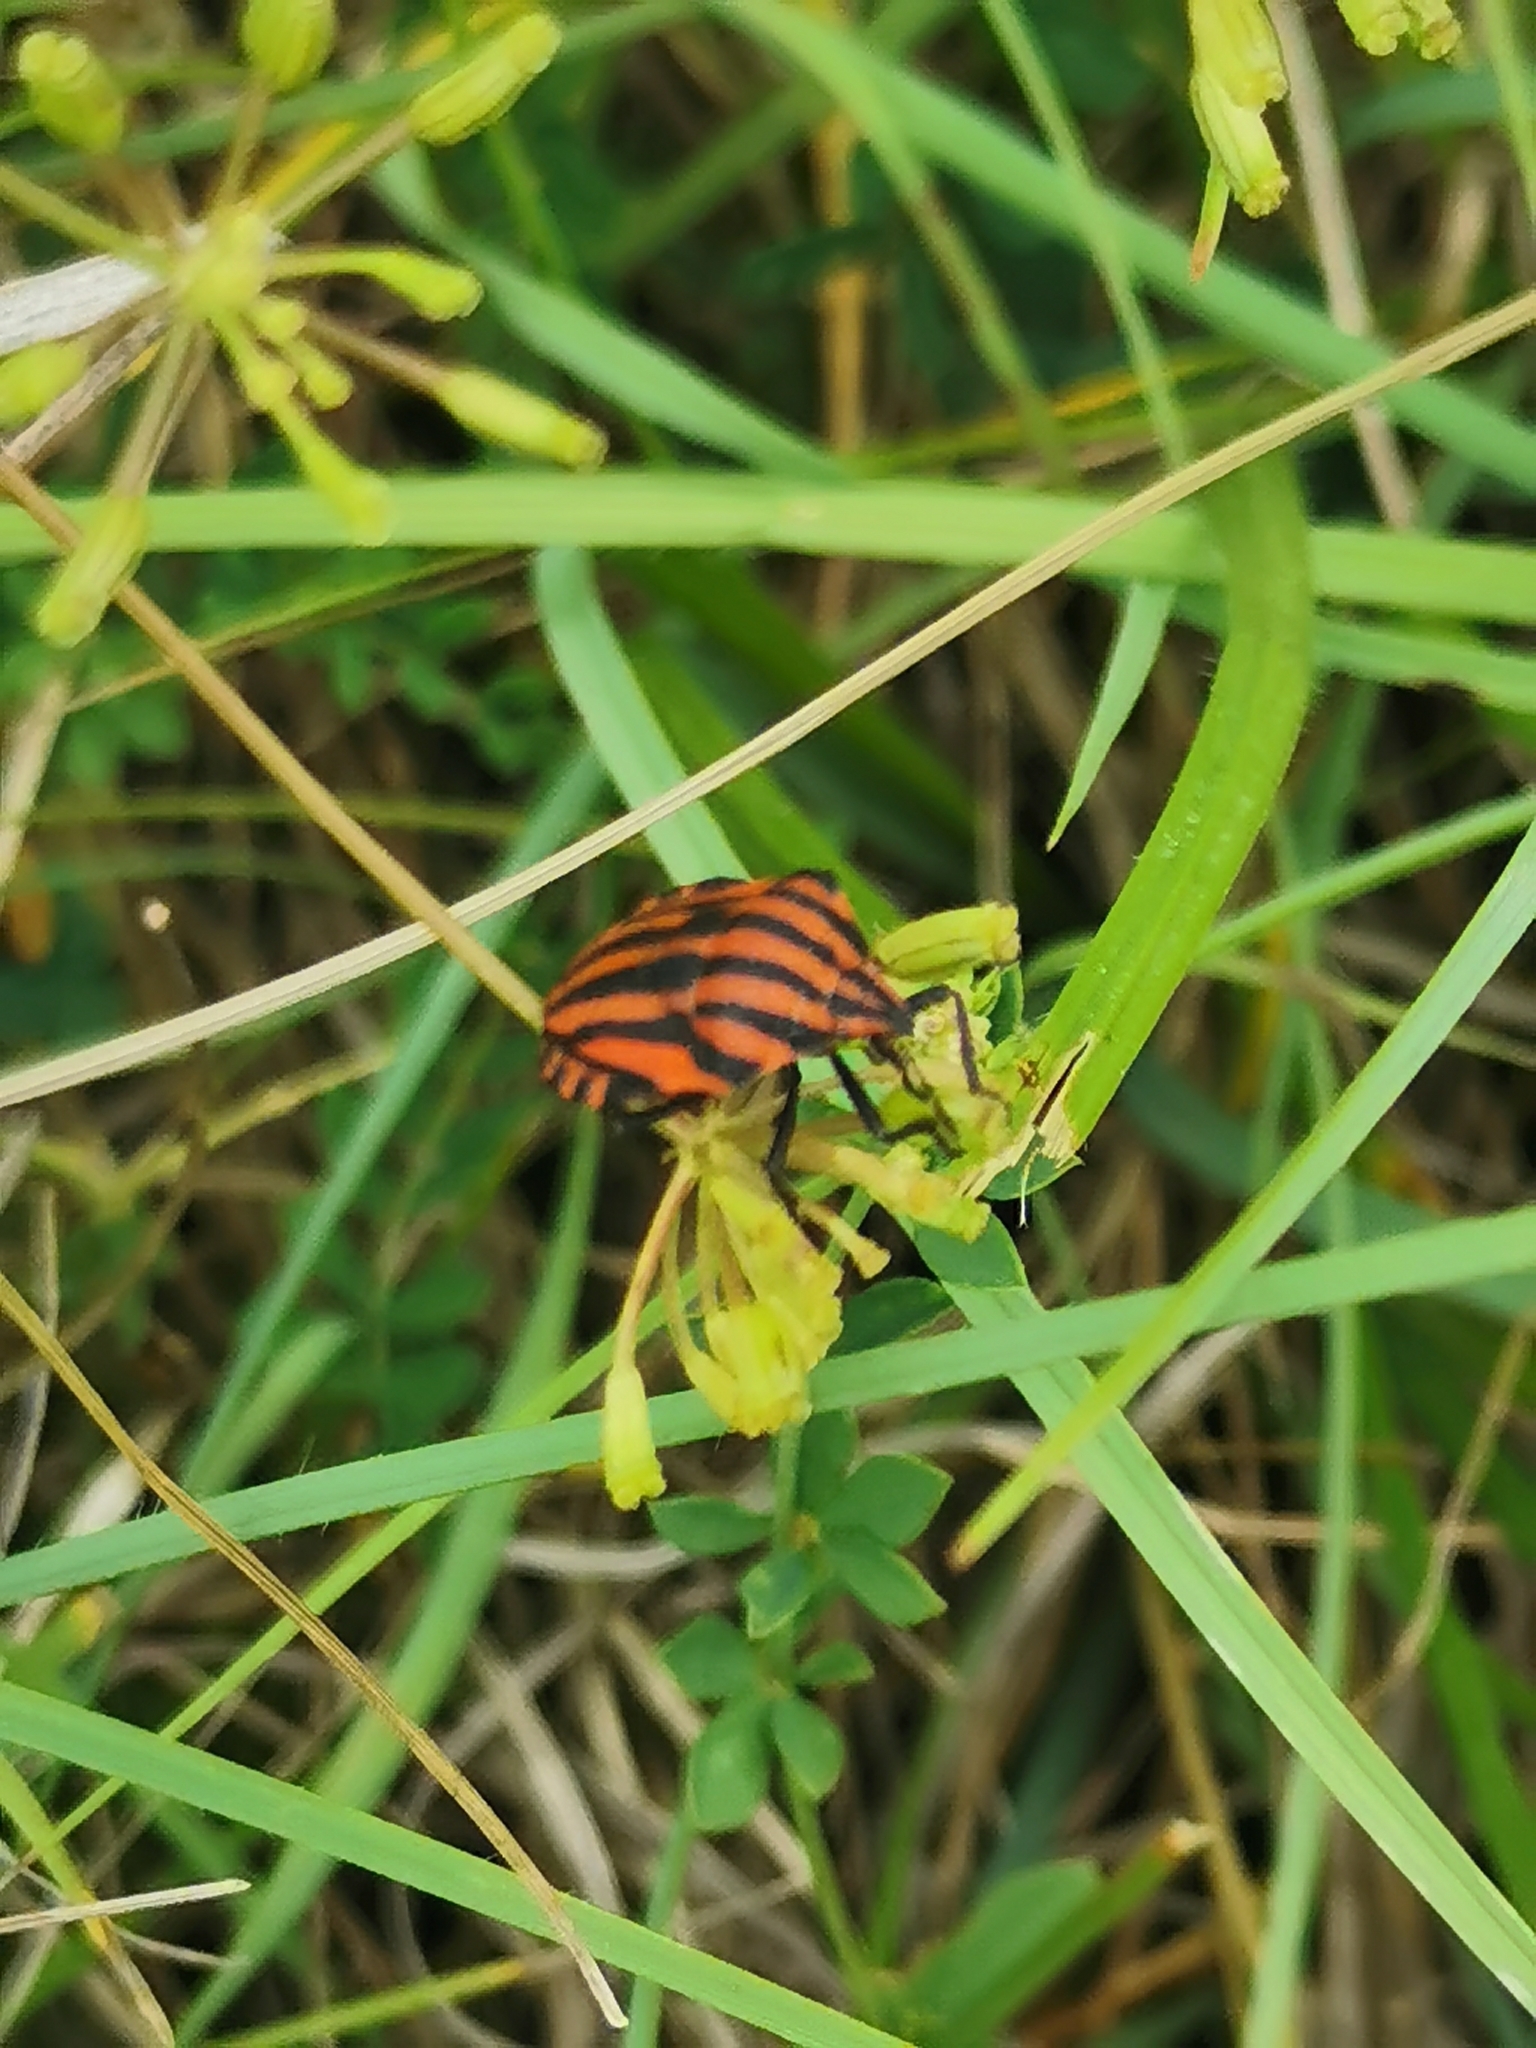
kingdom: Animalia
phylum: Arthropoda
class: Insecta
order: Hemiptera
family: Pentatomidae
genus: Graphosoma
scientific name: Graphosoma italicum
